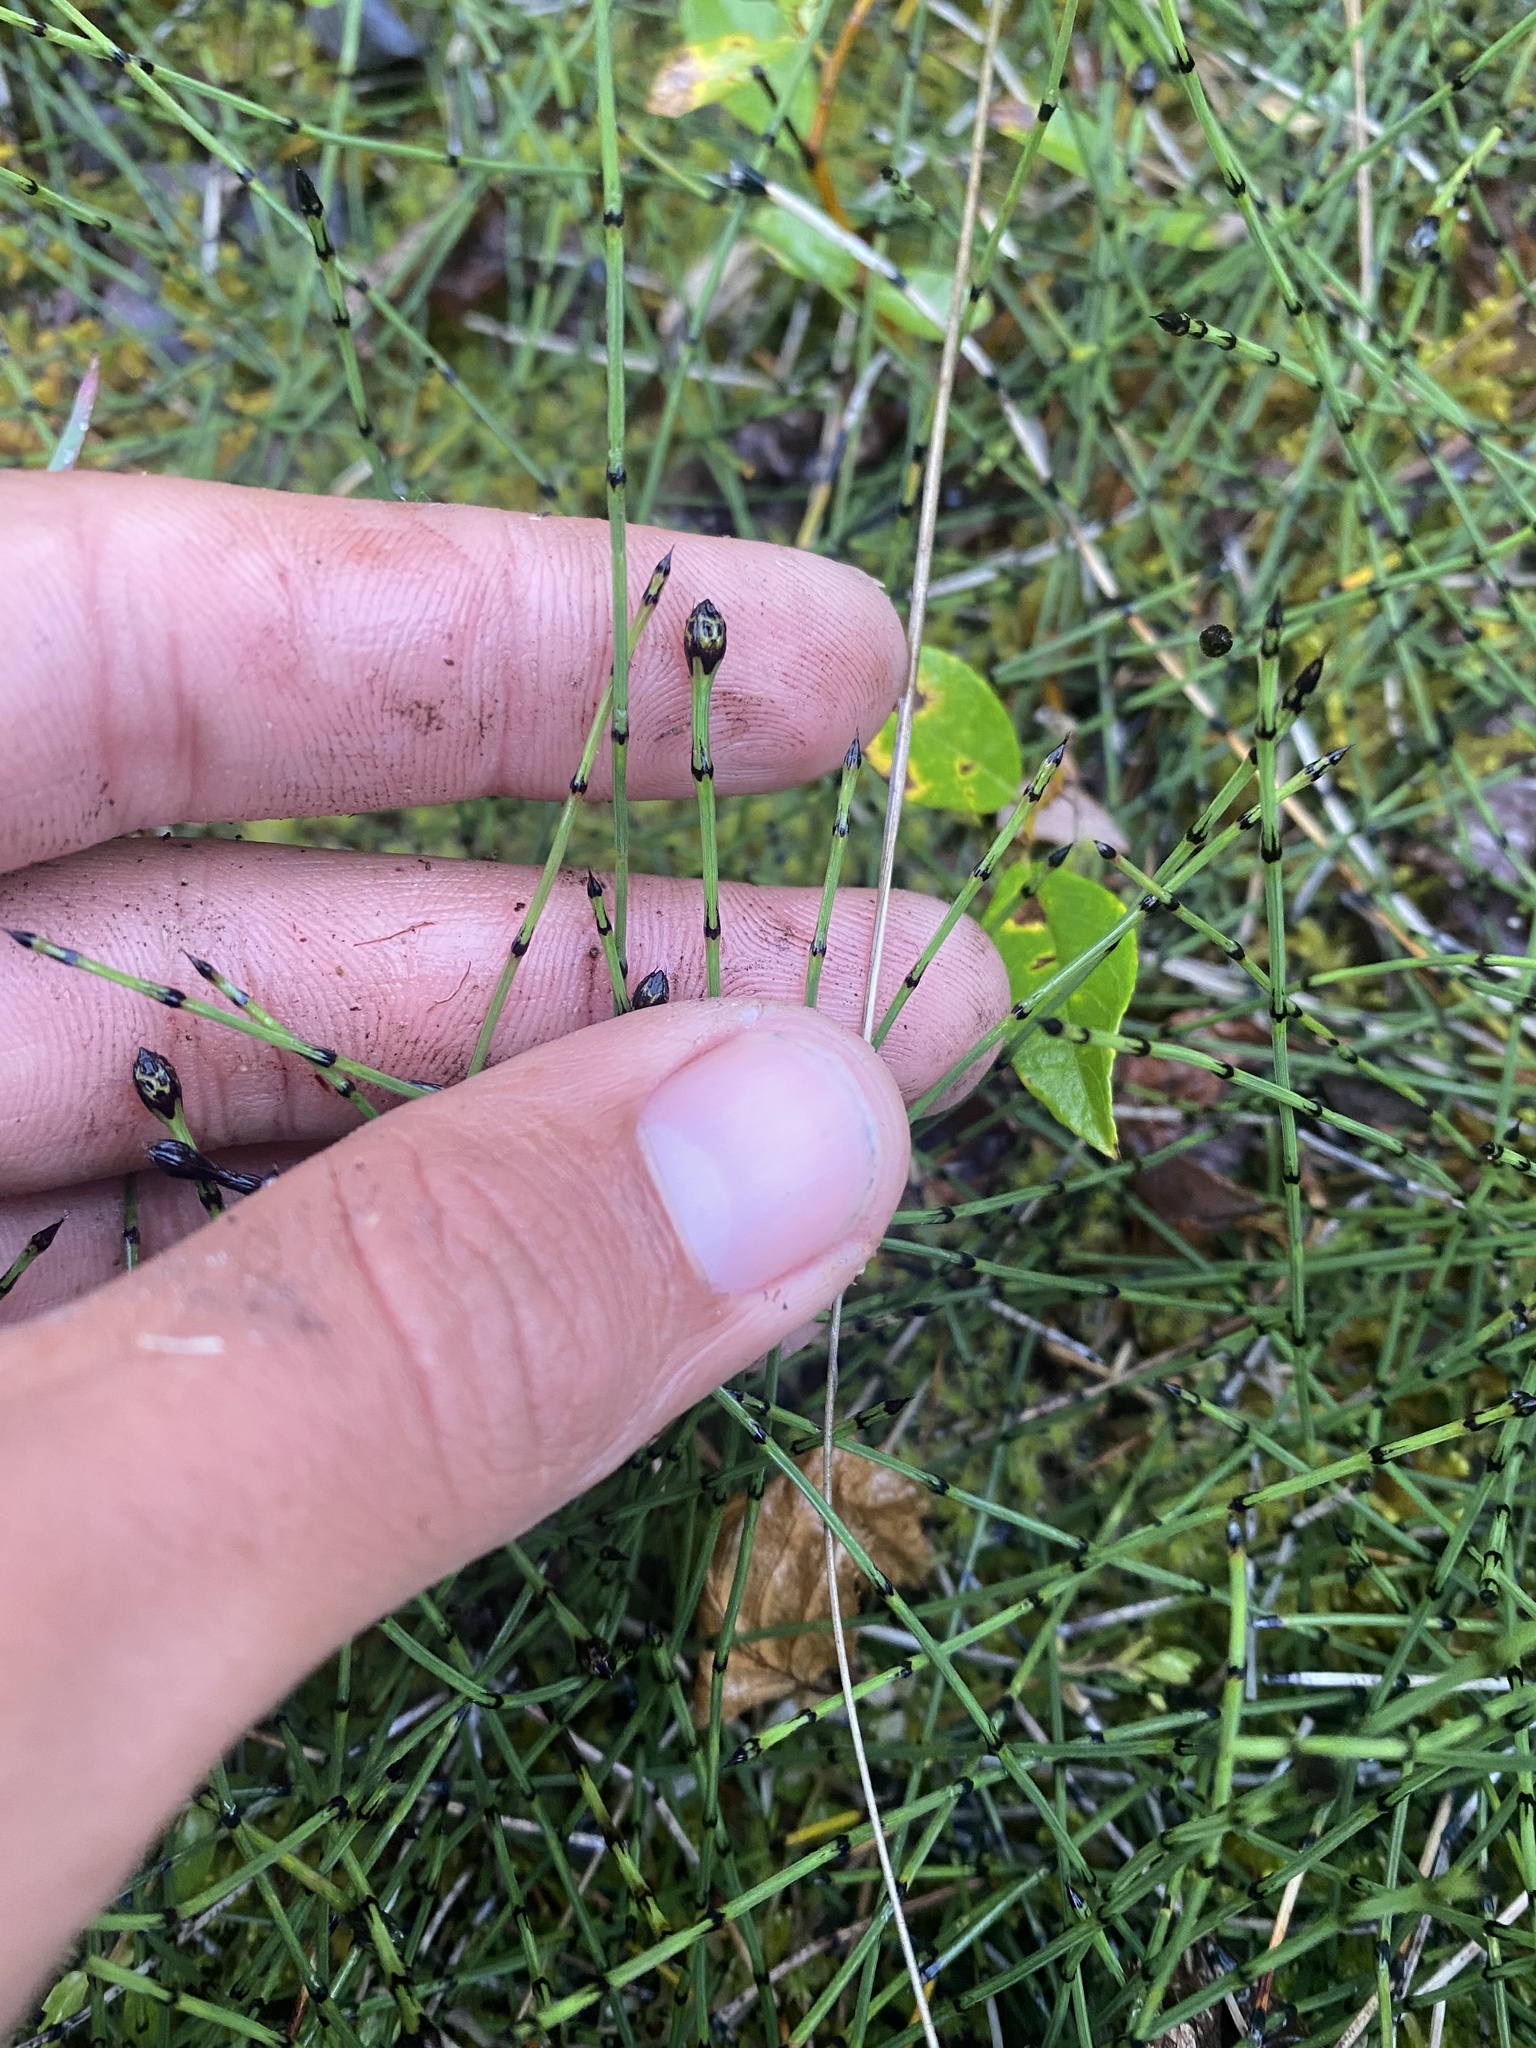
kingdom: Plantae
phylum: Tracheophyta
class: Polypodiopsida
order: Equisetales
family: Equisetaceae
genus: Equisetum
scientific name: Equisetum variegatum
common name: Variegated horsetail
